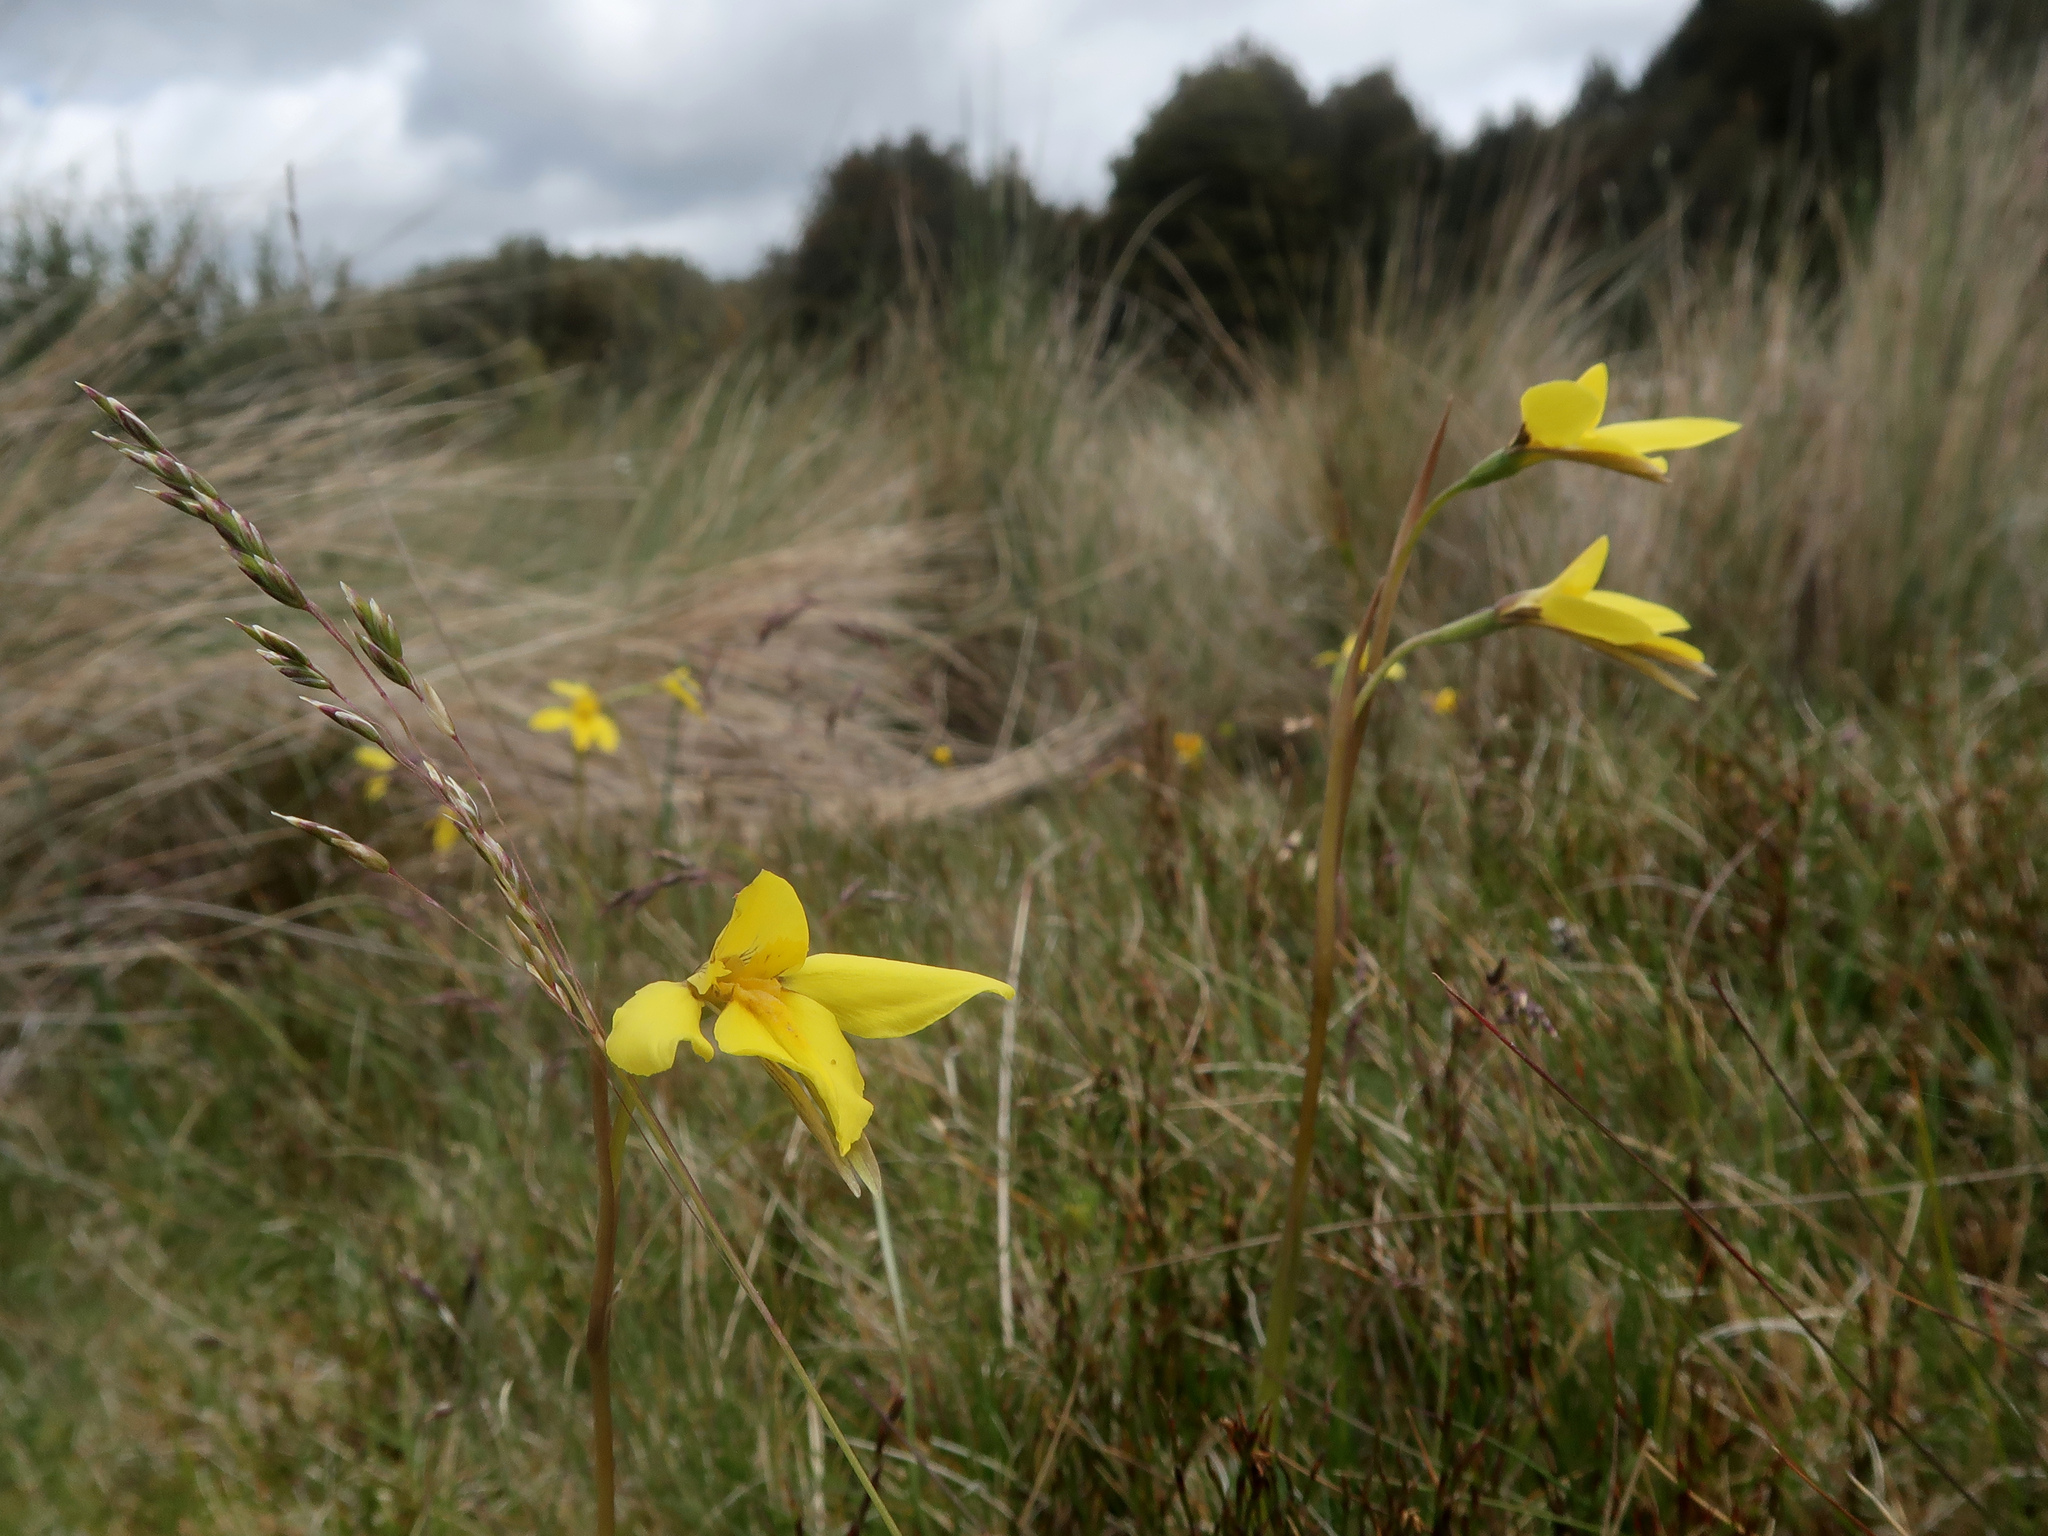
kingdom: Plantae
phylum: Tracheophyta
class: Liliopsida
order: Asparagales
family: Orchidaceae
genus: Diuris
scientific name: Diuris monticola
